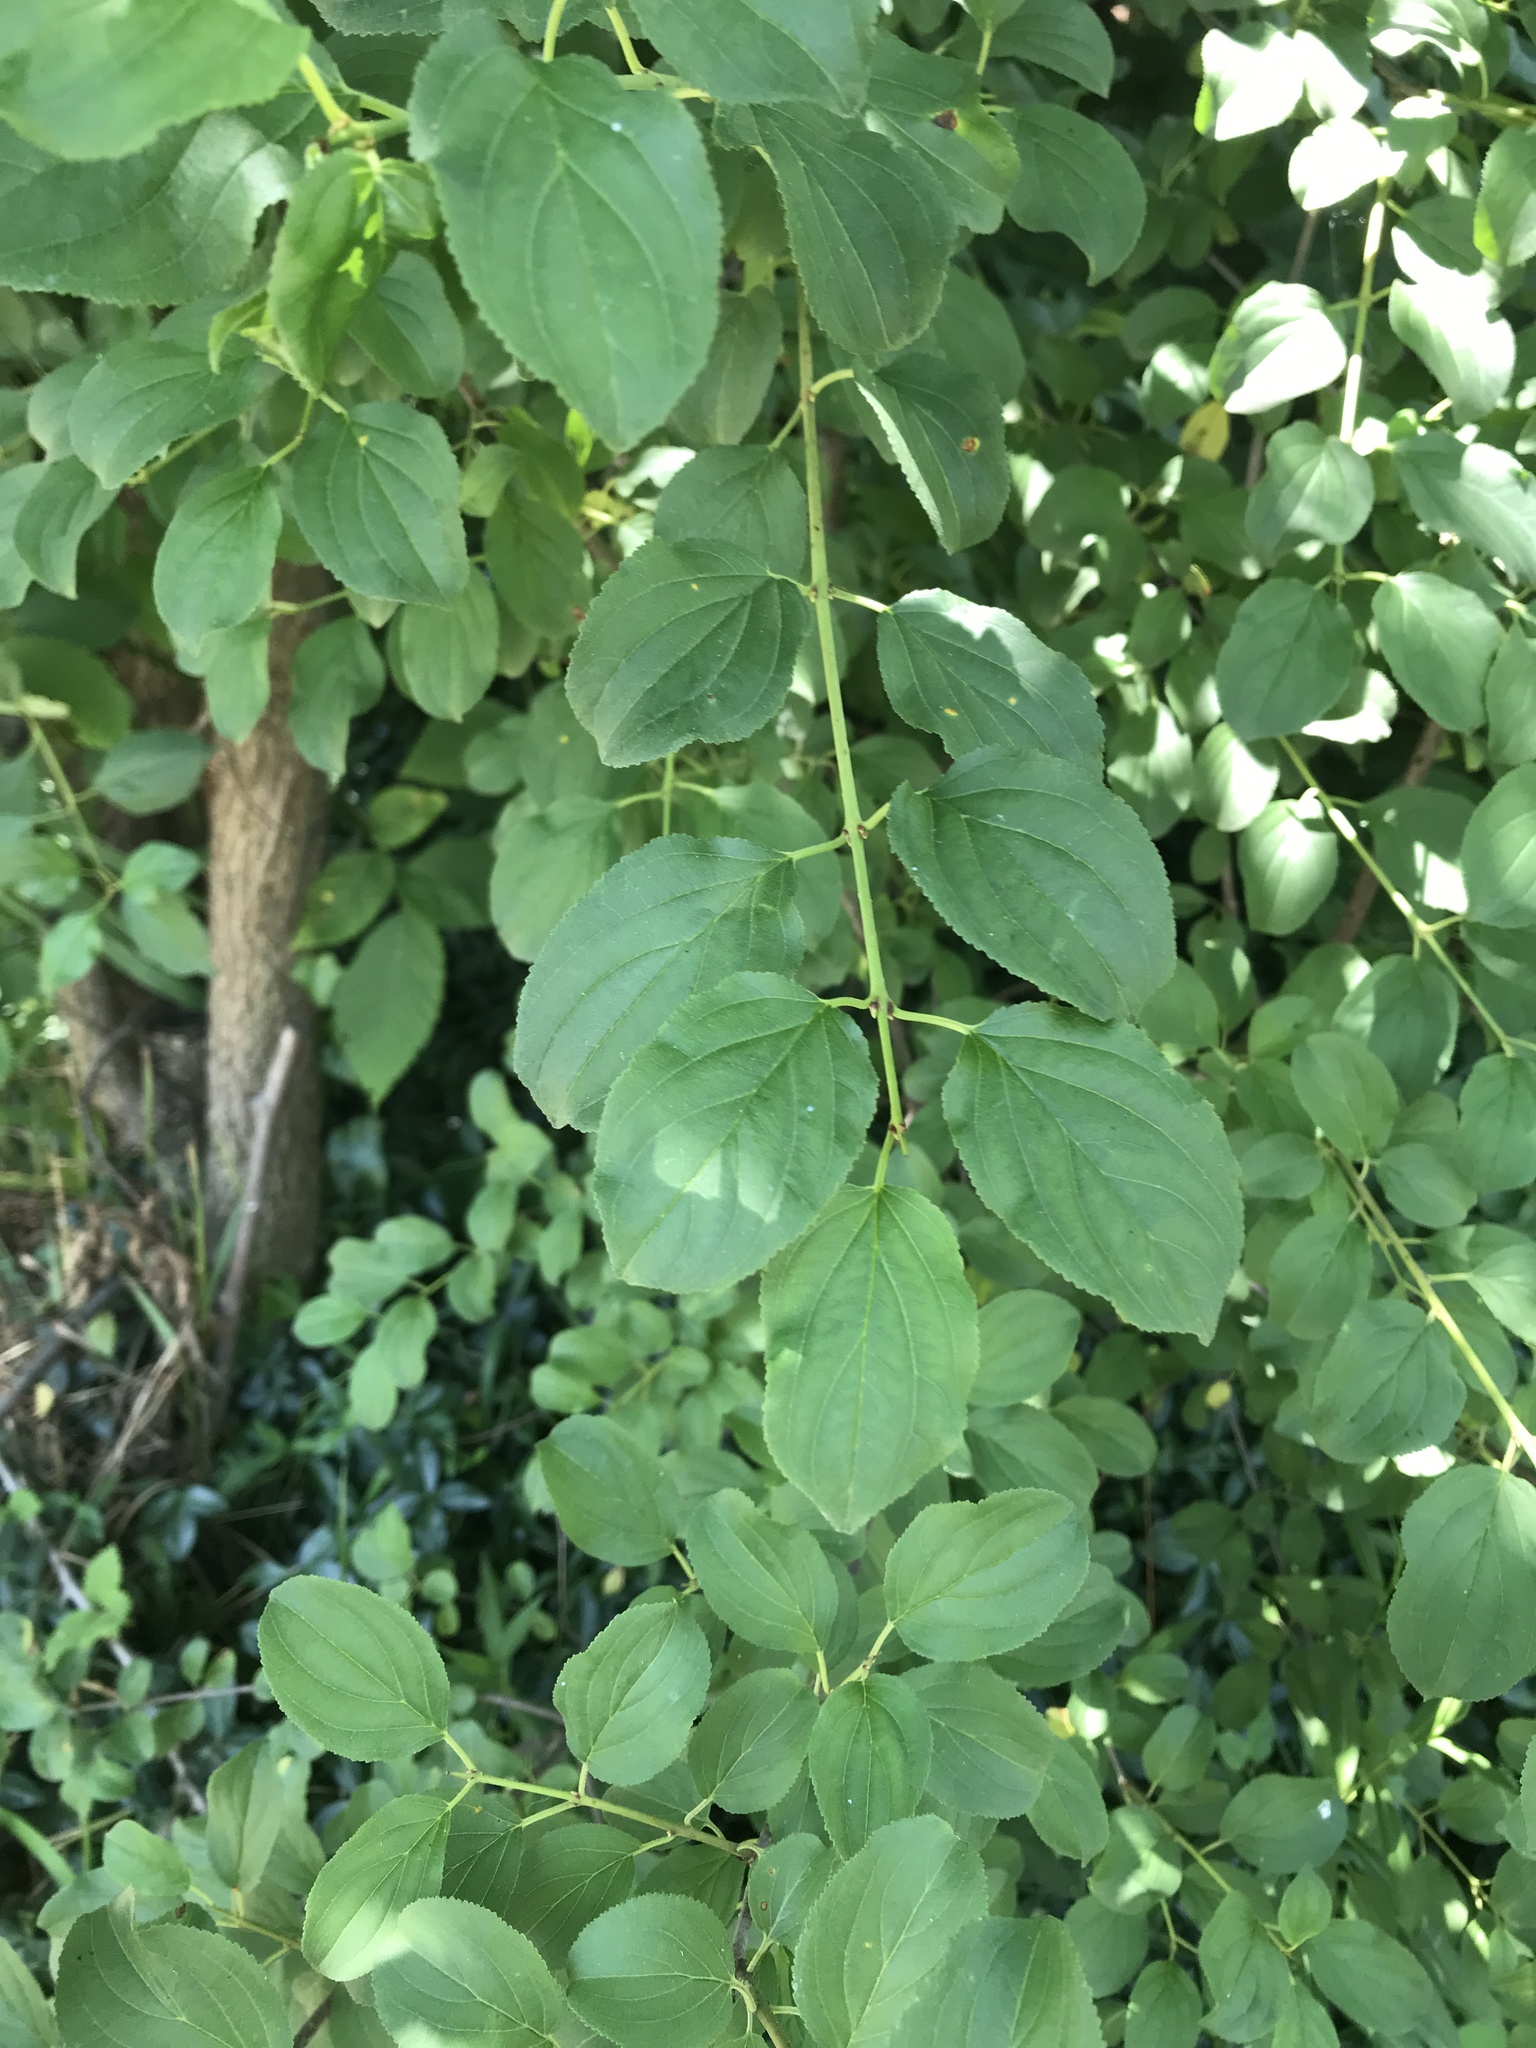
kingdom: Plantae
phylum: Tracheophyta
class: Magnoliopsida
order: Rosales
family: Rhamnaceae
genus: Rhamnus
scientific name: Rhamnus cathartica
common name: Common buckthorn
